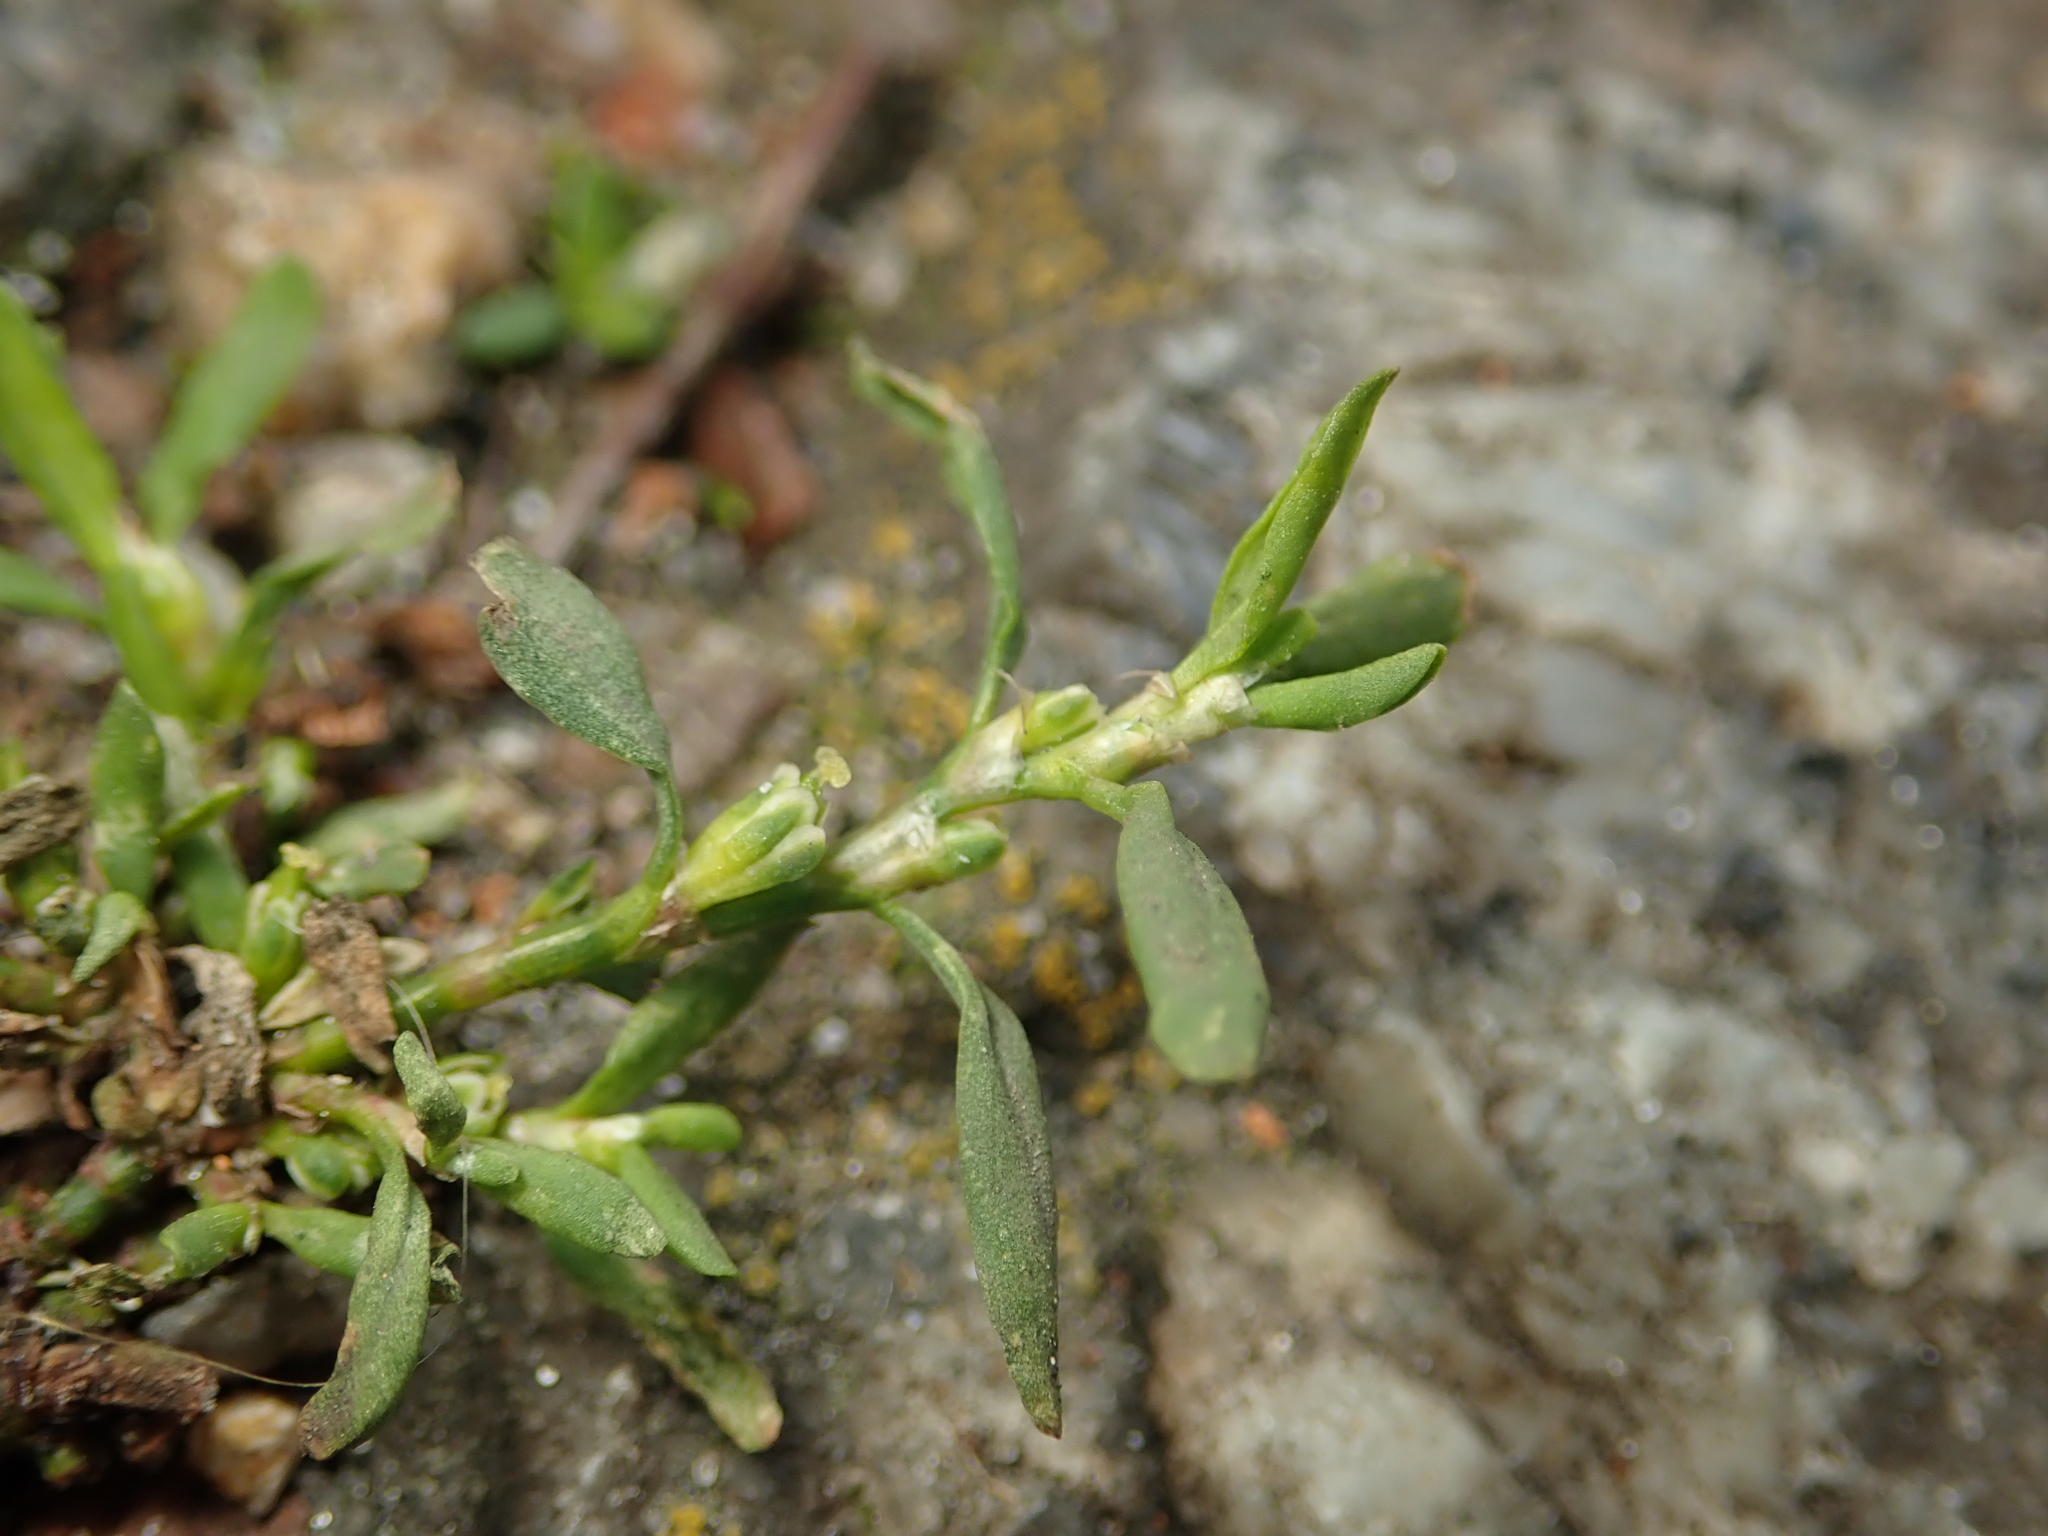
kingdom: Plantae
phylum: Tracheophyta
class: Magnoliopsida
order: Caryophyllales
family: Polygonaceae
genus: Polygonum
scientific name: Polygonum aviculare
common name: Prostrate knotweed
